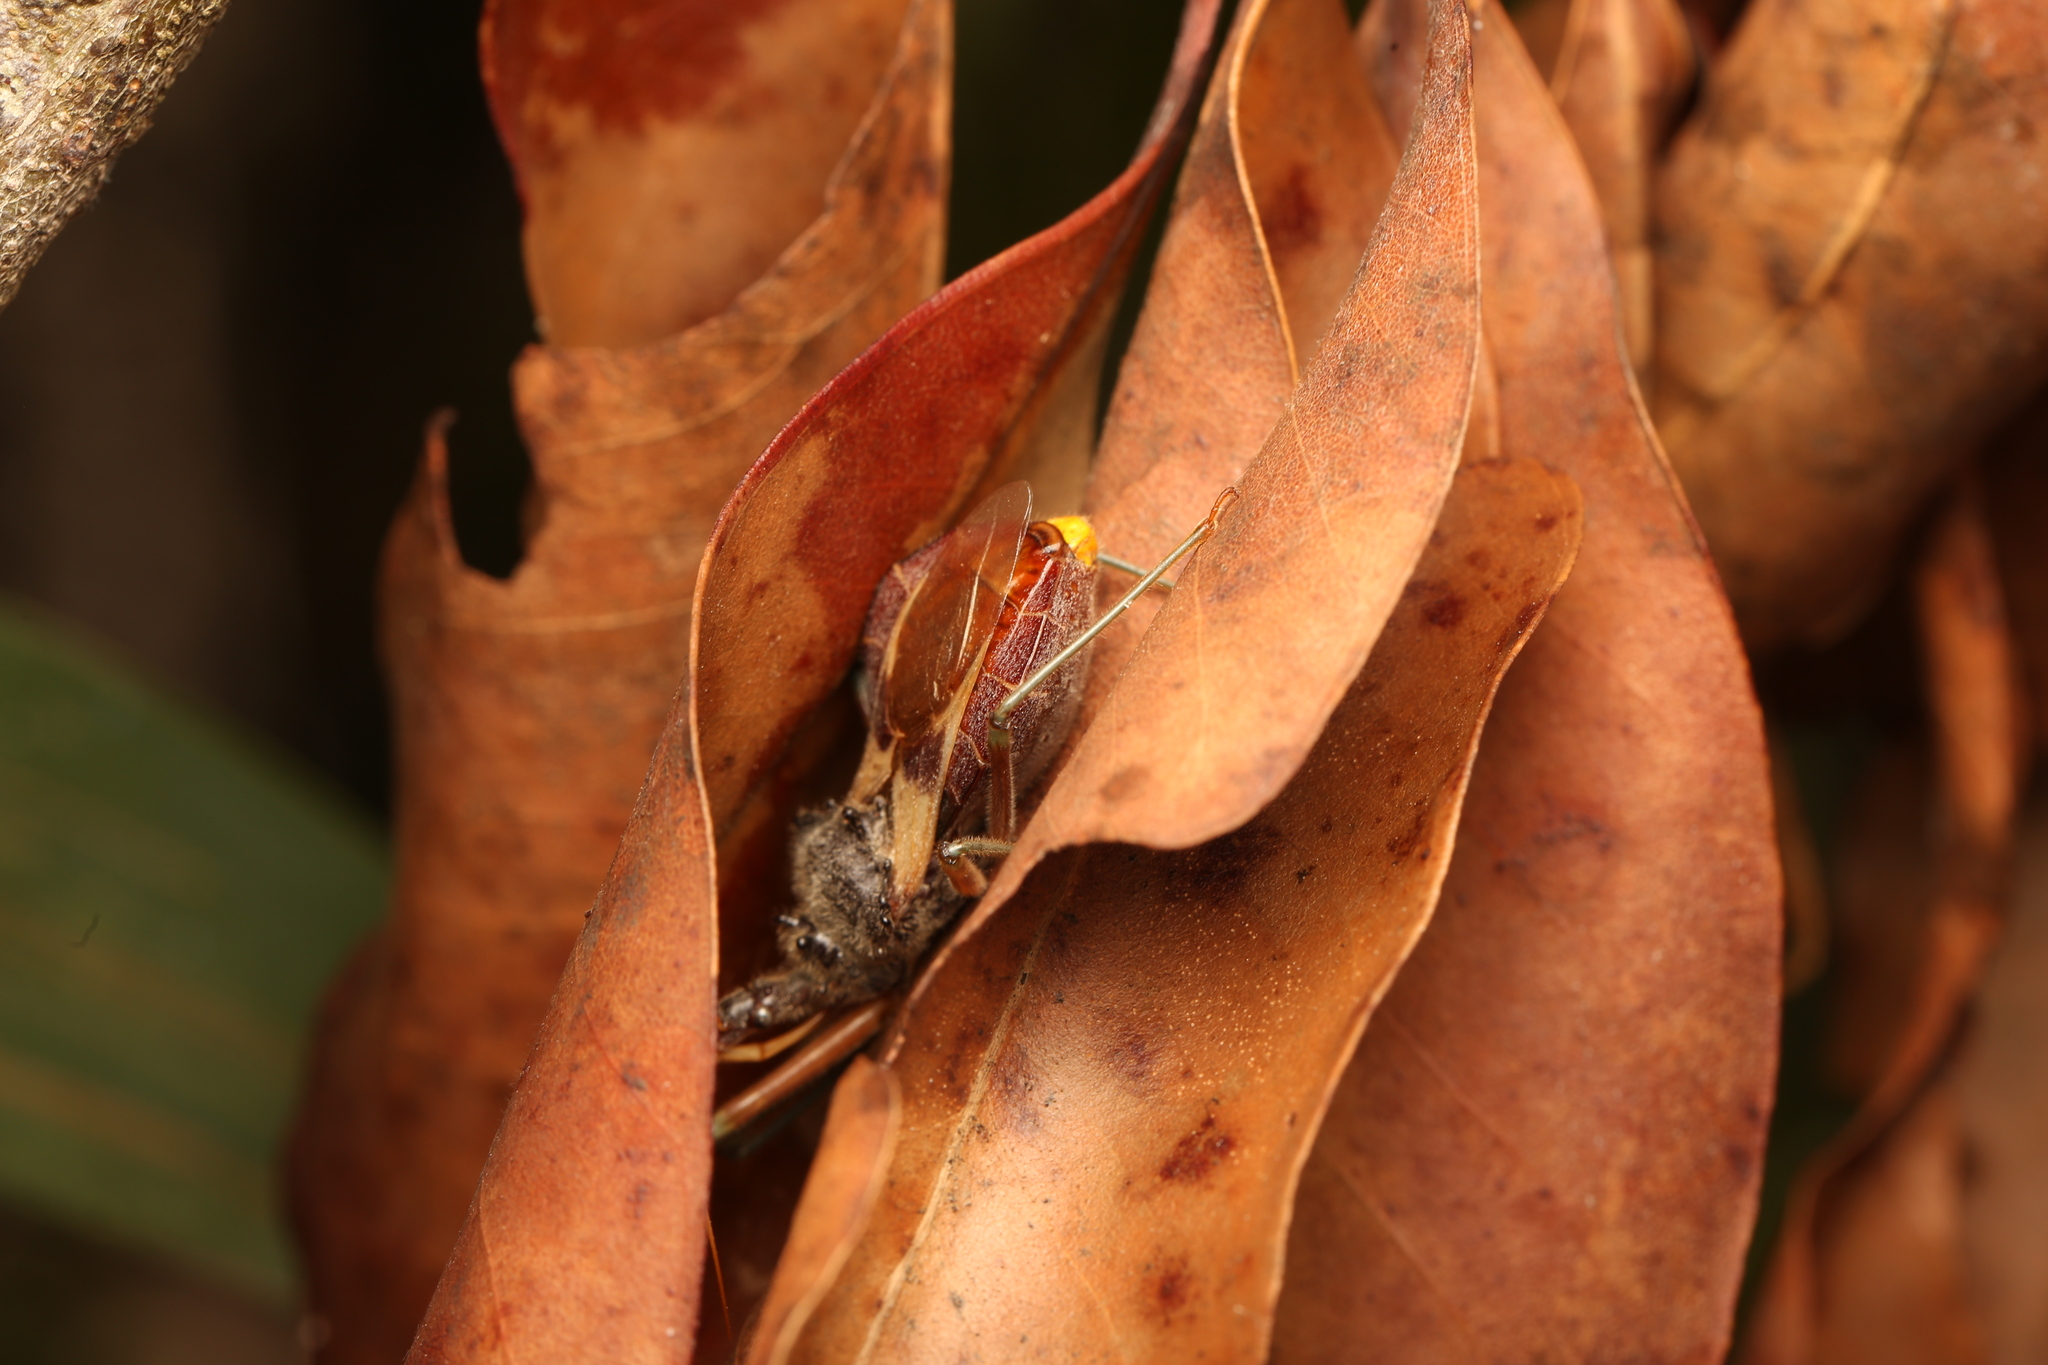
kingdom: Animalia
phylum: Arthropoda
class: Insecta
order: Hemiptera
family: Reduviidae
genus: Pristhesancus
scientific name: Pristhesancus plagipennis
